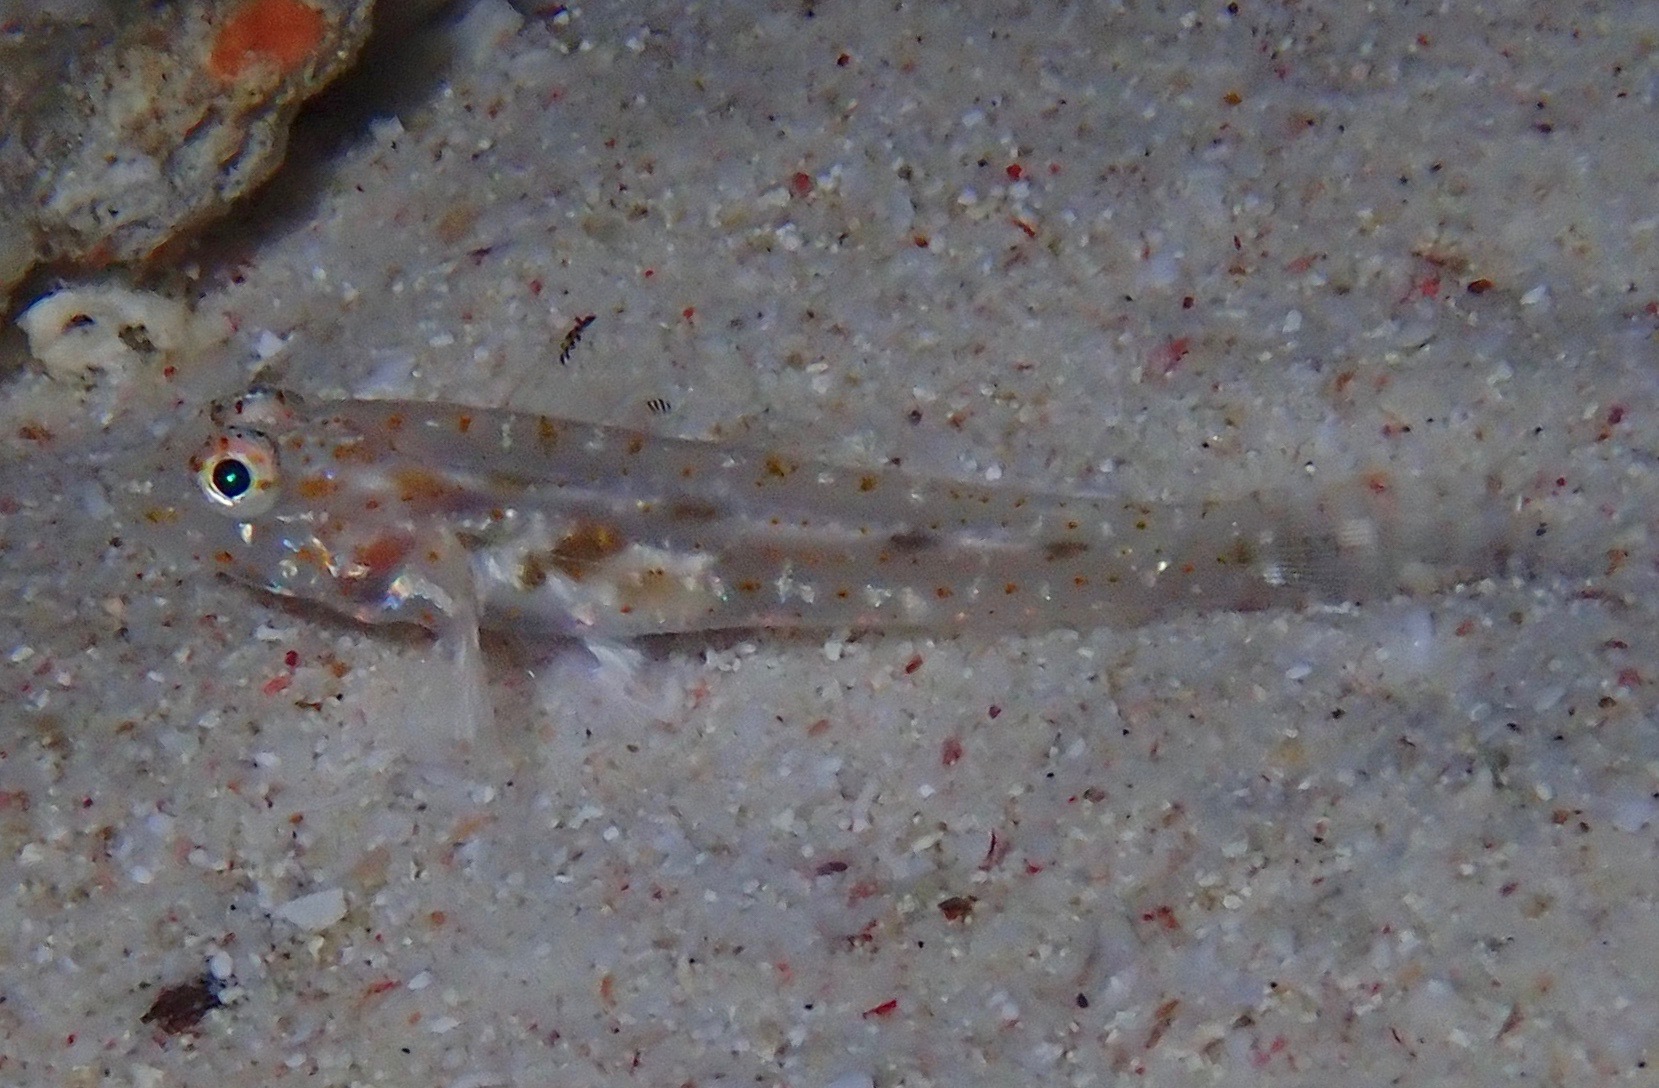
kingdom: Animalia
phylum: Chordata
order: Perciformes
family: Gobiidae
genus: Fusigobius
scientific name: Fusigobius duospilus
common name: Twospot goby
